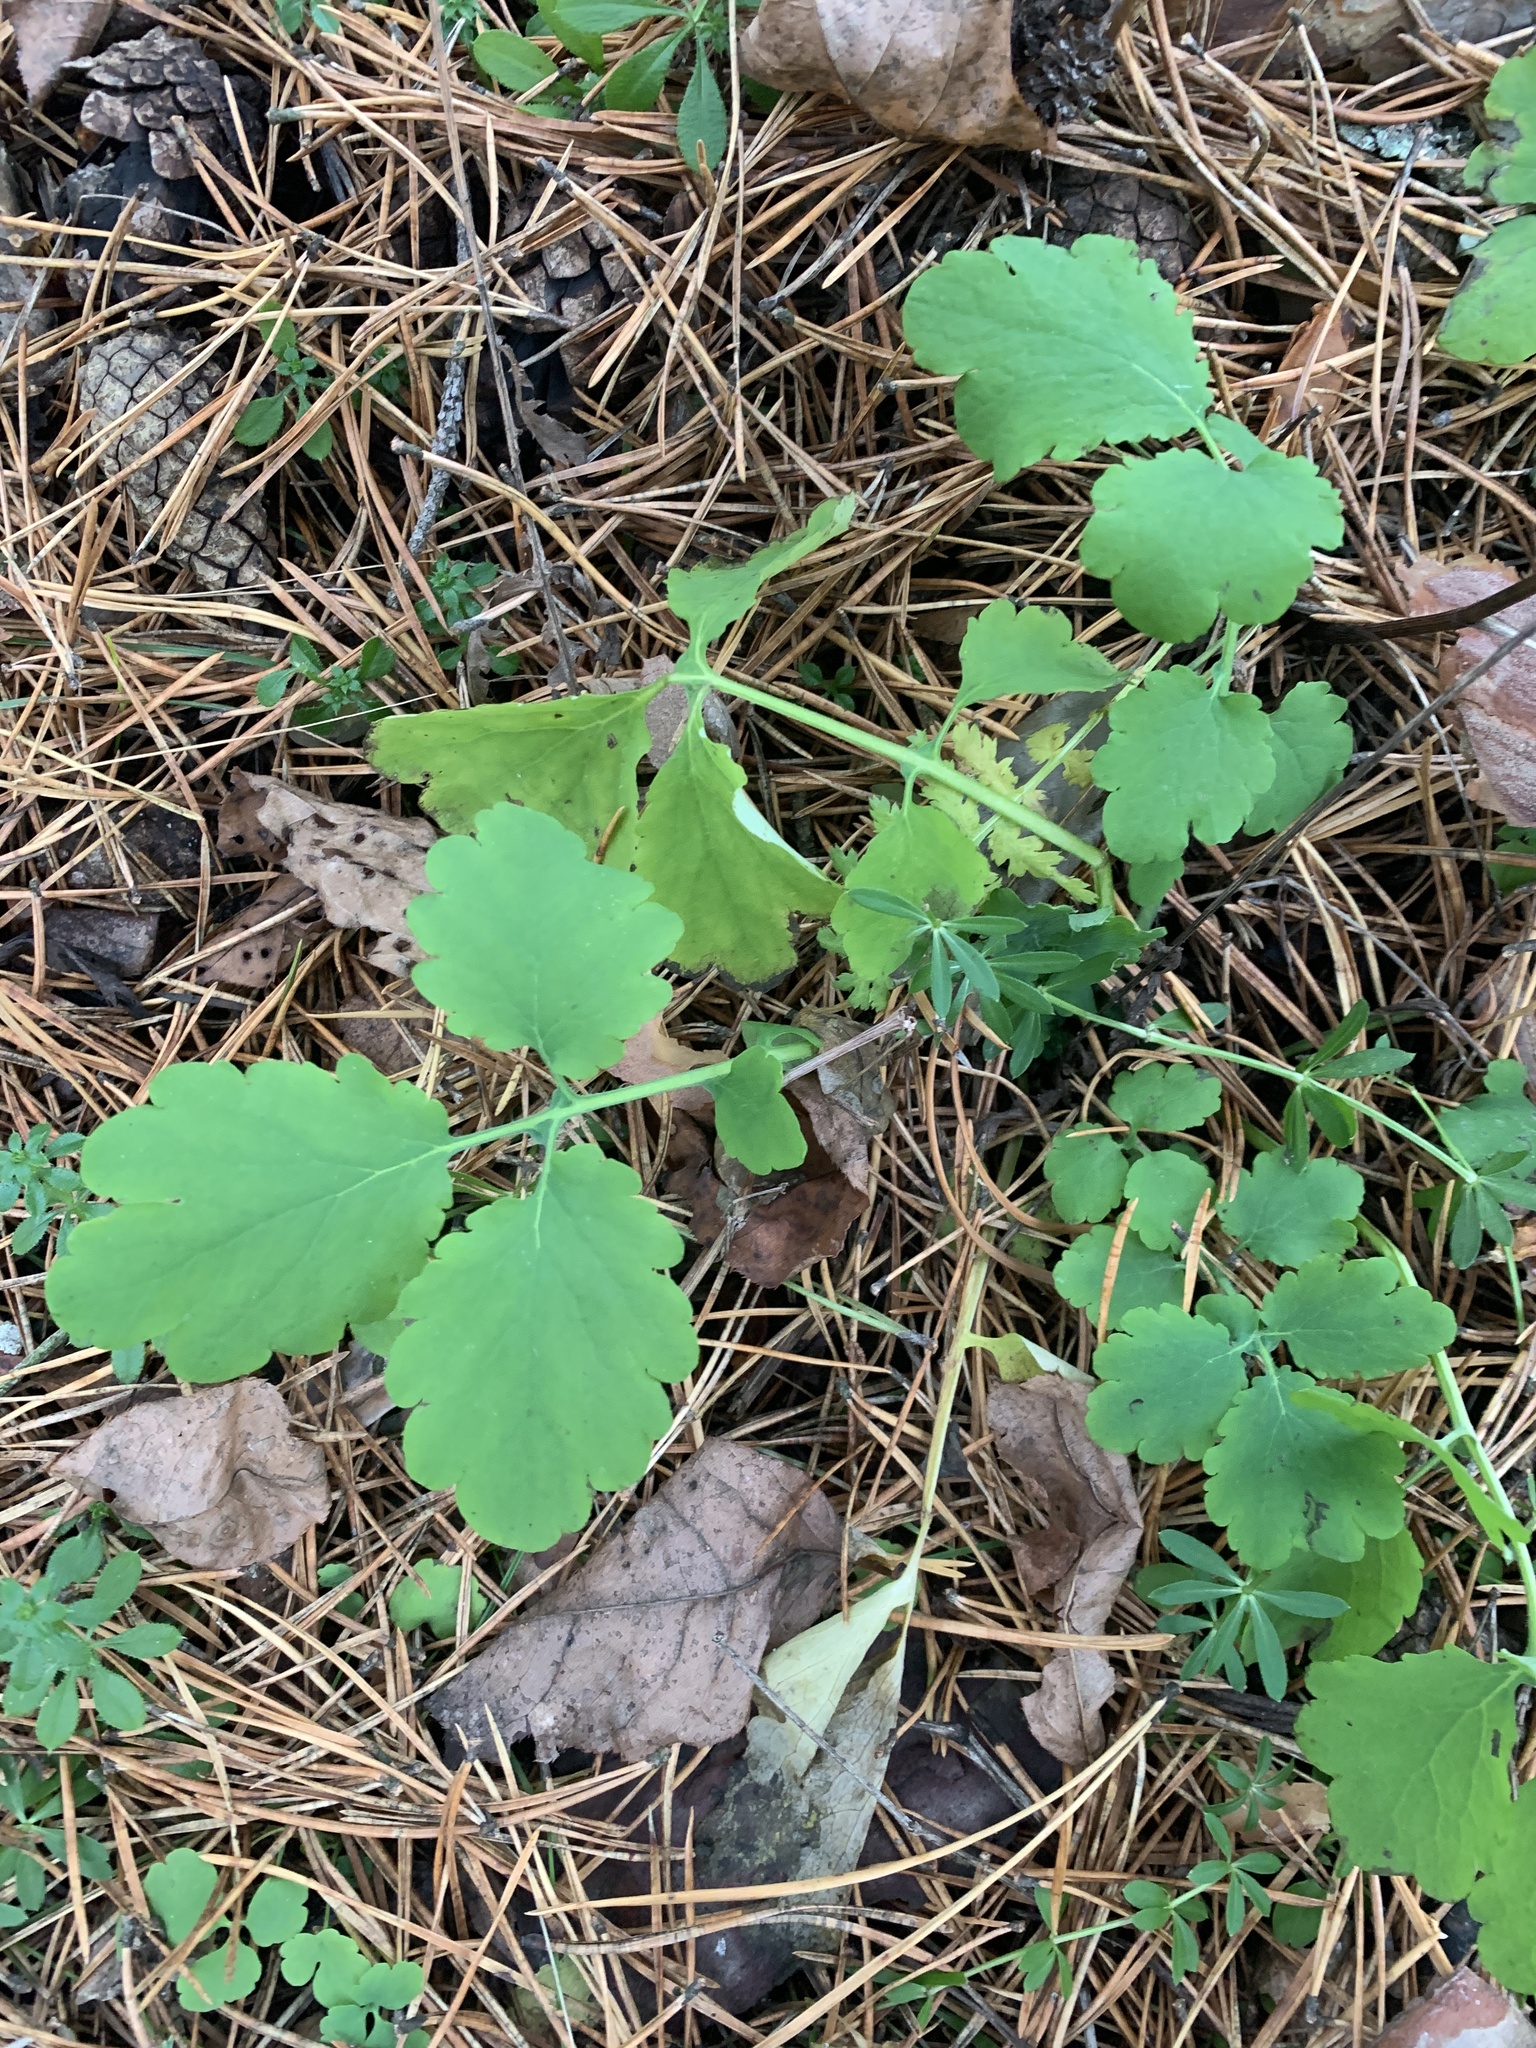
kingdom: Plantae
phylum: Tracheophyta
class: Magnoliopsida
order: Ranunculales
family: Papaveraceae
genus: Chelidonium
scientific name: Chelidonium majus
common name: Greater celandine
